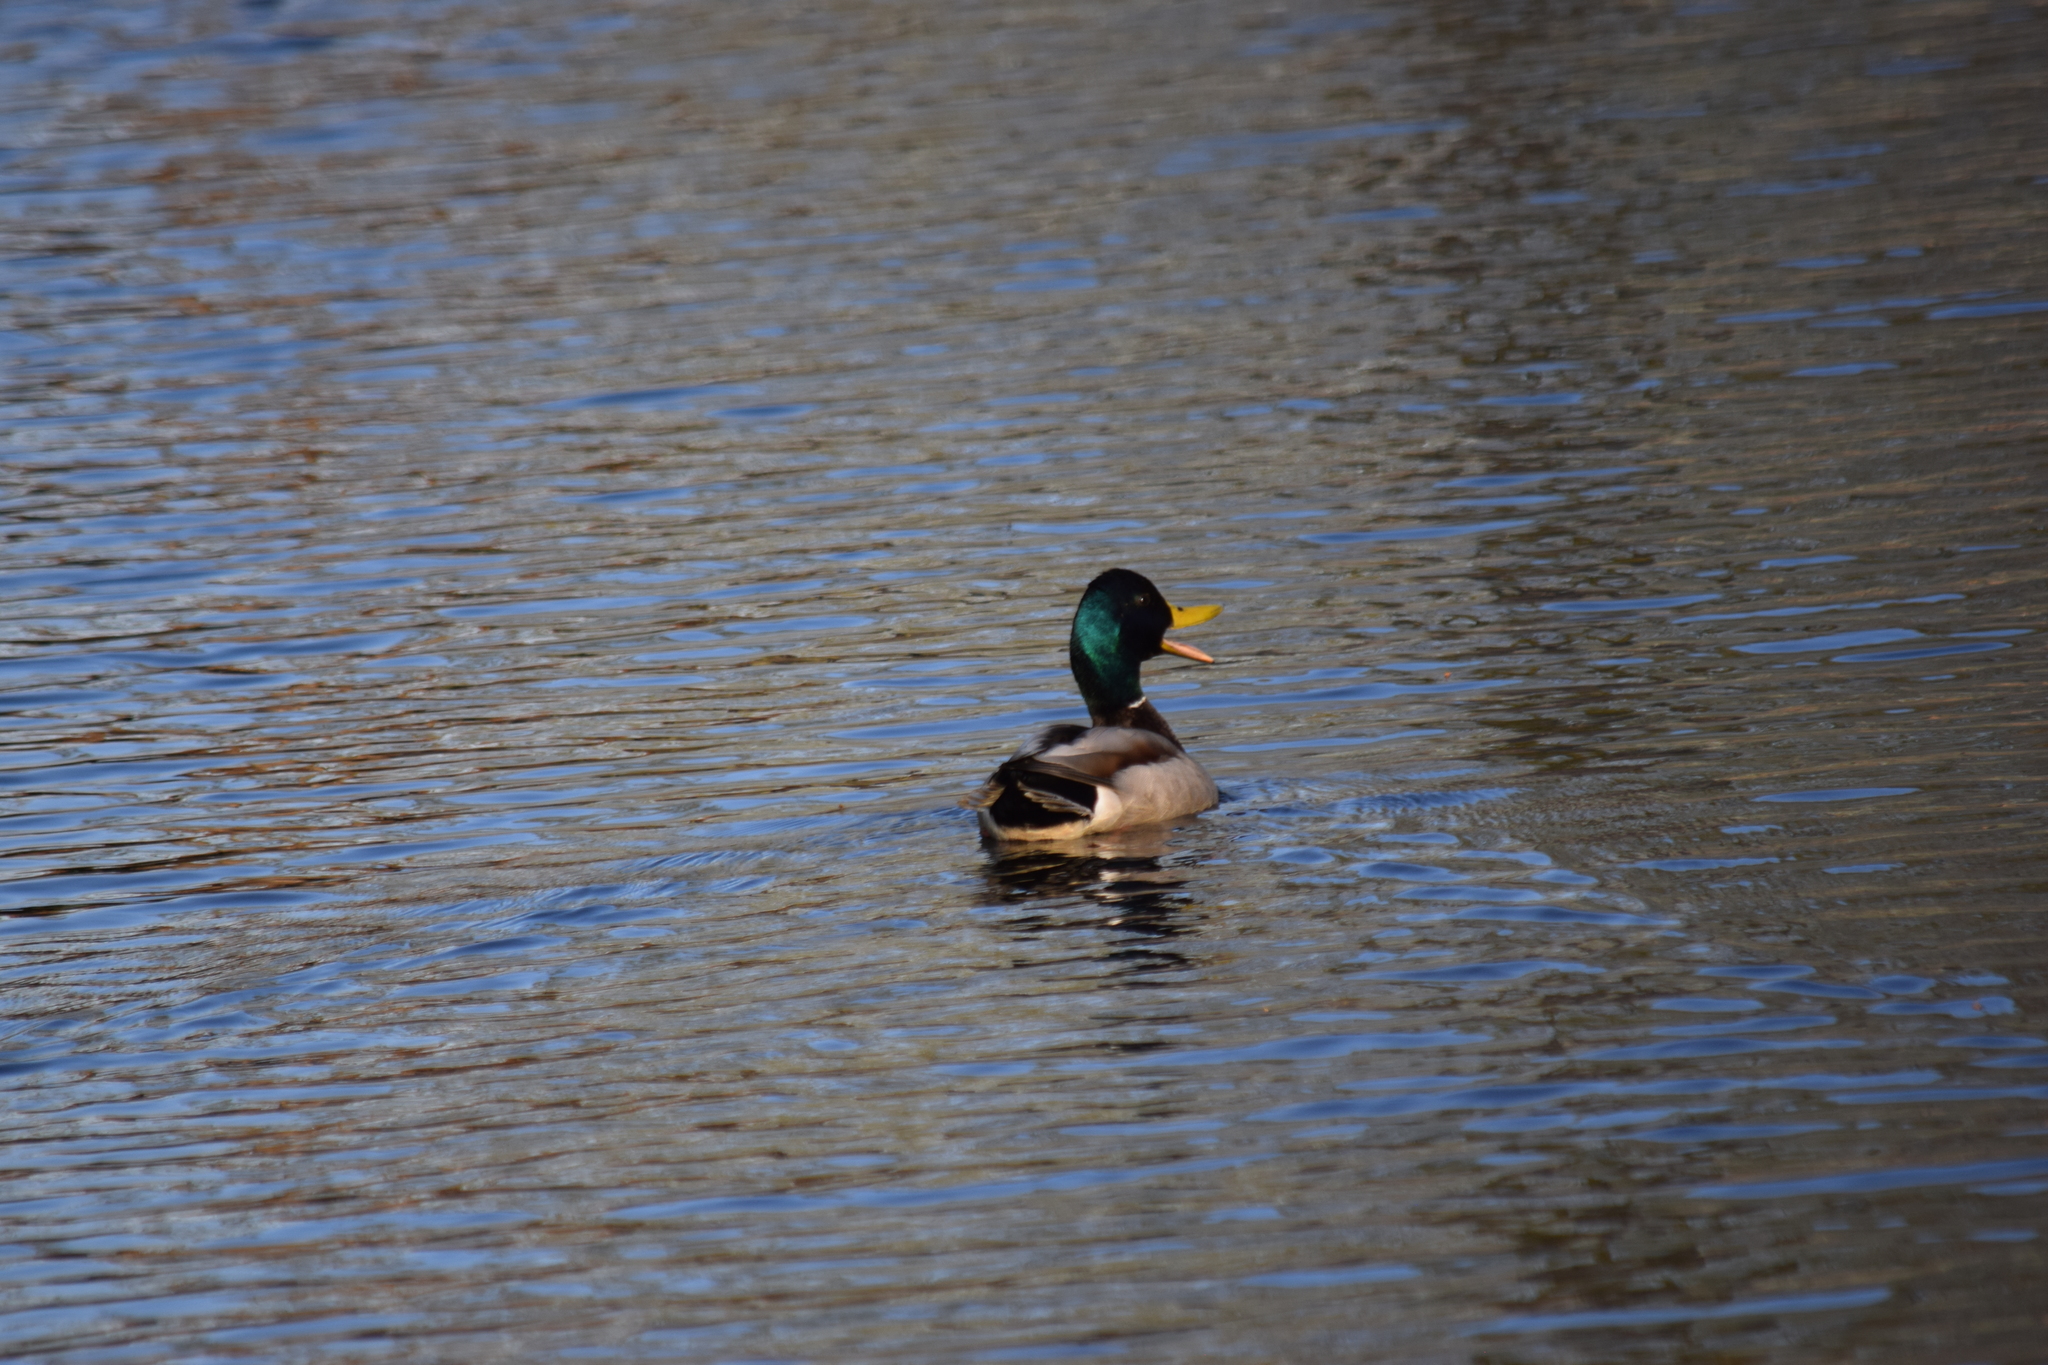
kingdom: Animalia
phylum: Chordata
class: Aves
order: Anseriformes
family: Anatidae
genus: Anas
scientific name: Anas platyrhynchos
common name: Mallard
